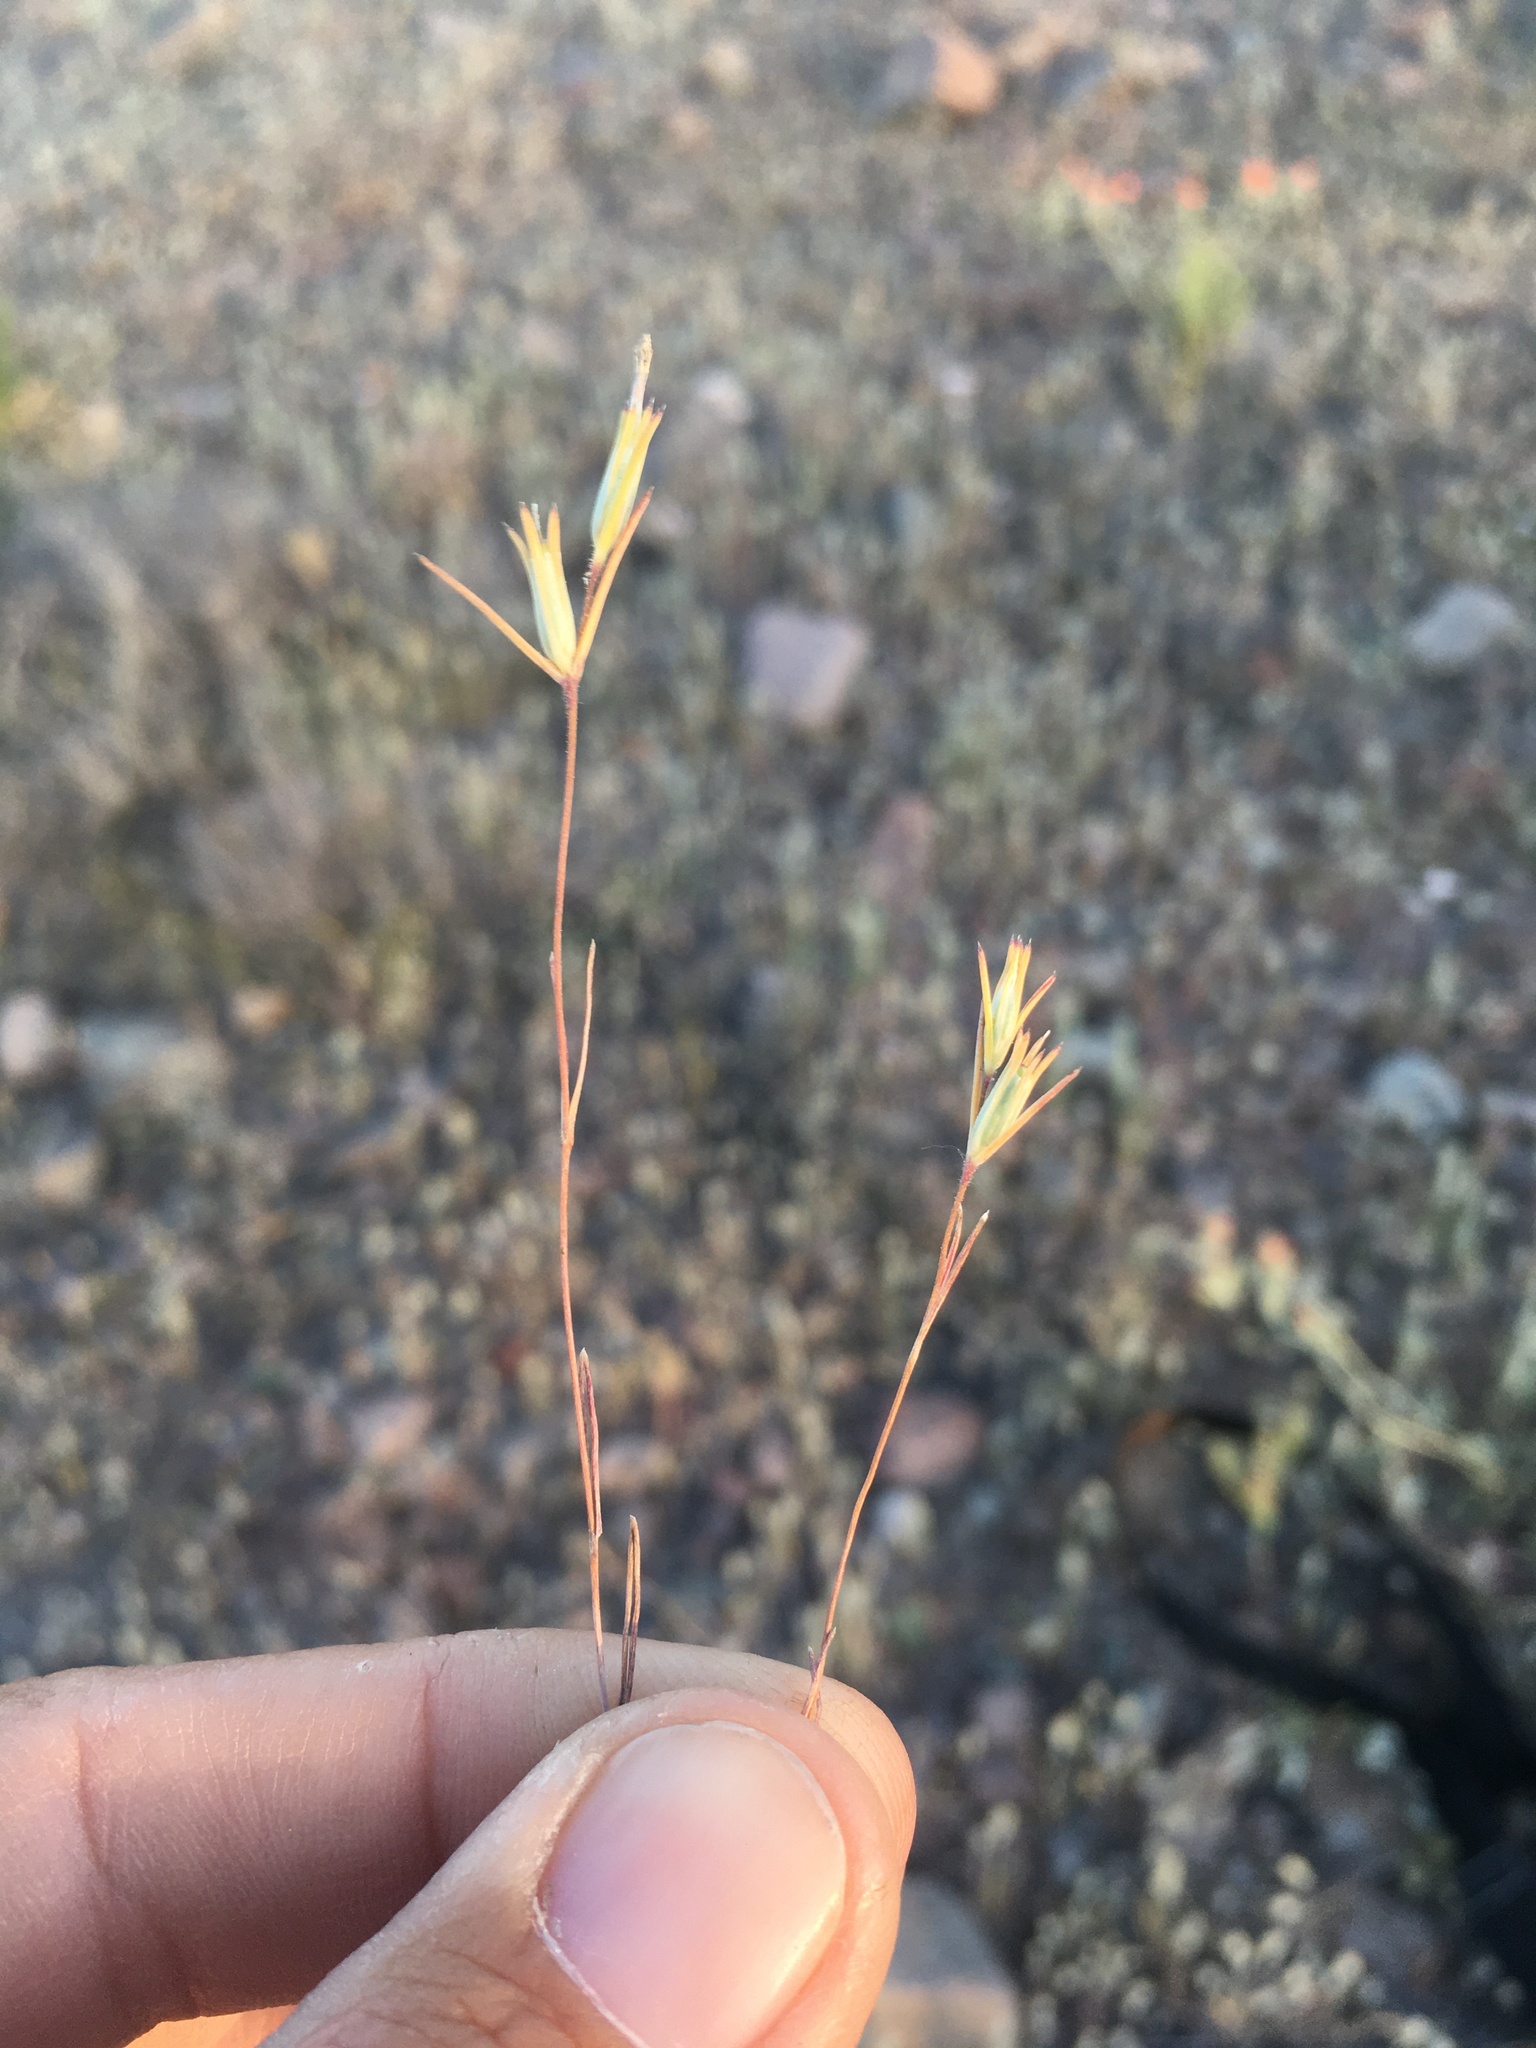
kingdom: Plantae
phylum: Tracheophyta
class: Magnoliopsida
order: Ericales
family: Polemoniaceae
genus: Linanthus
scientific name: Linanthus bigelovii
